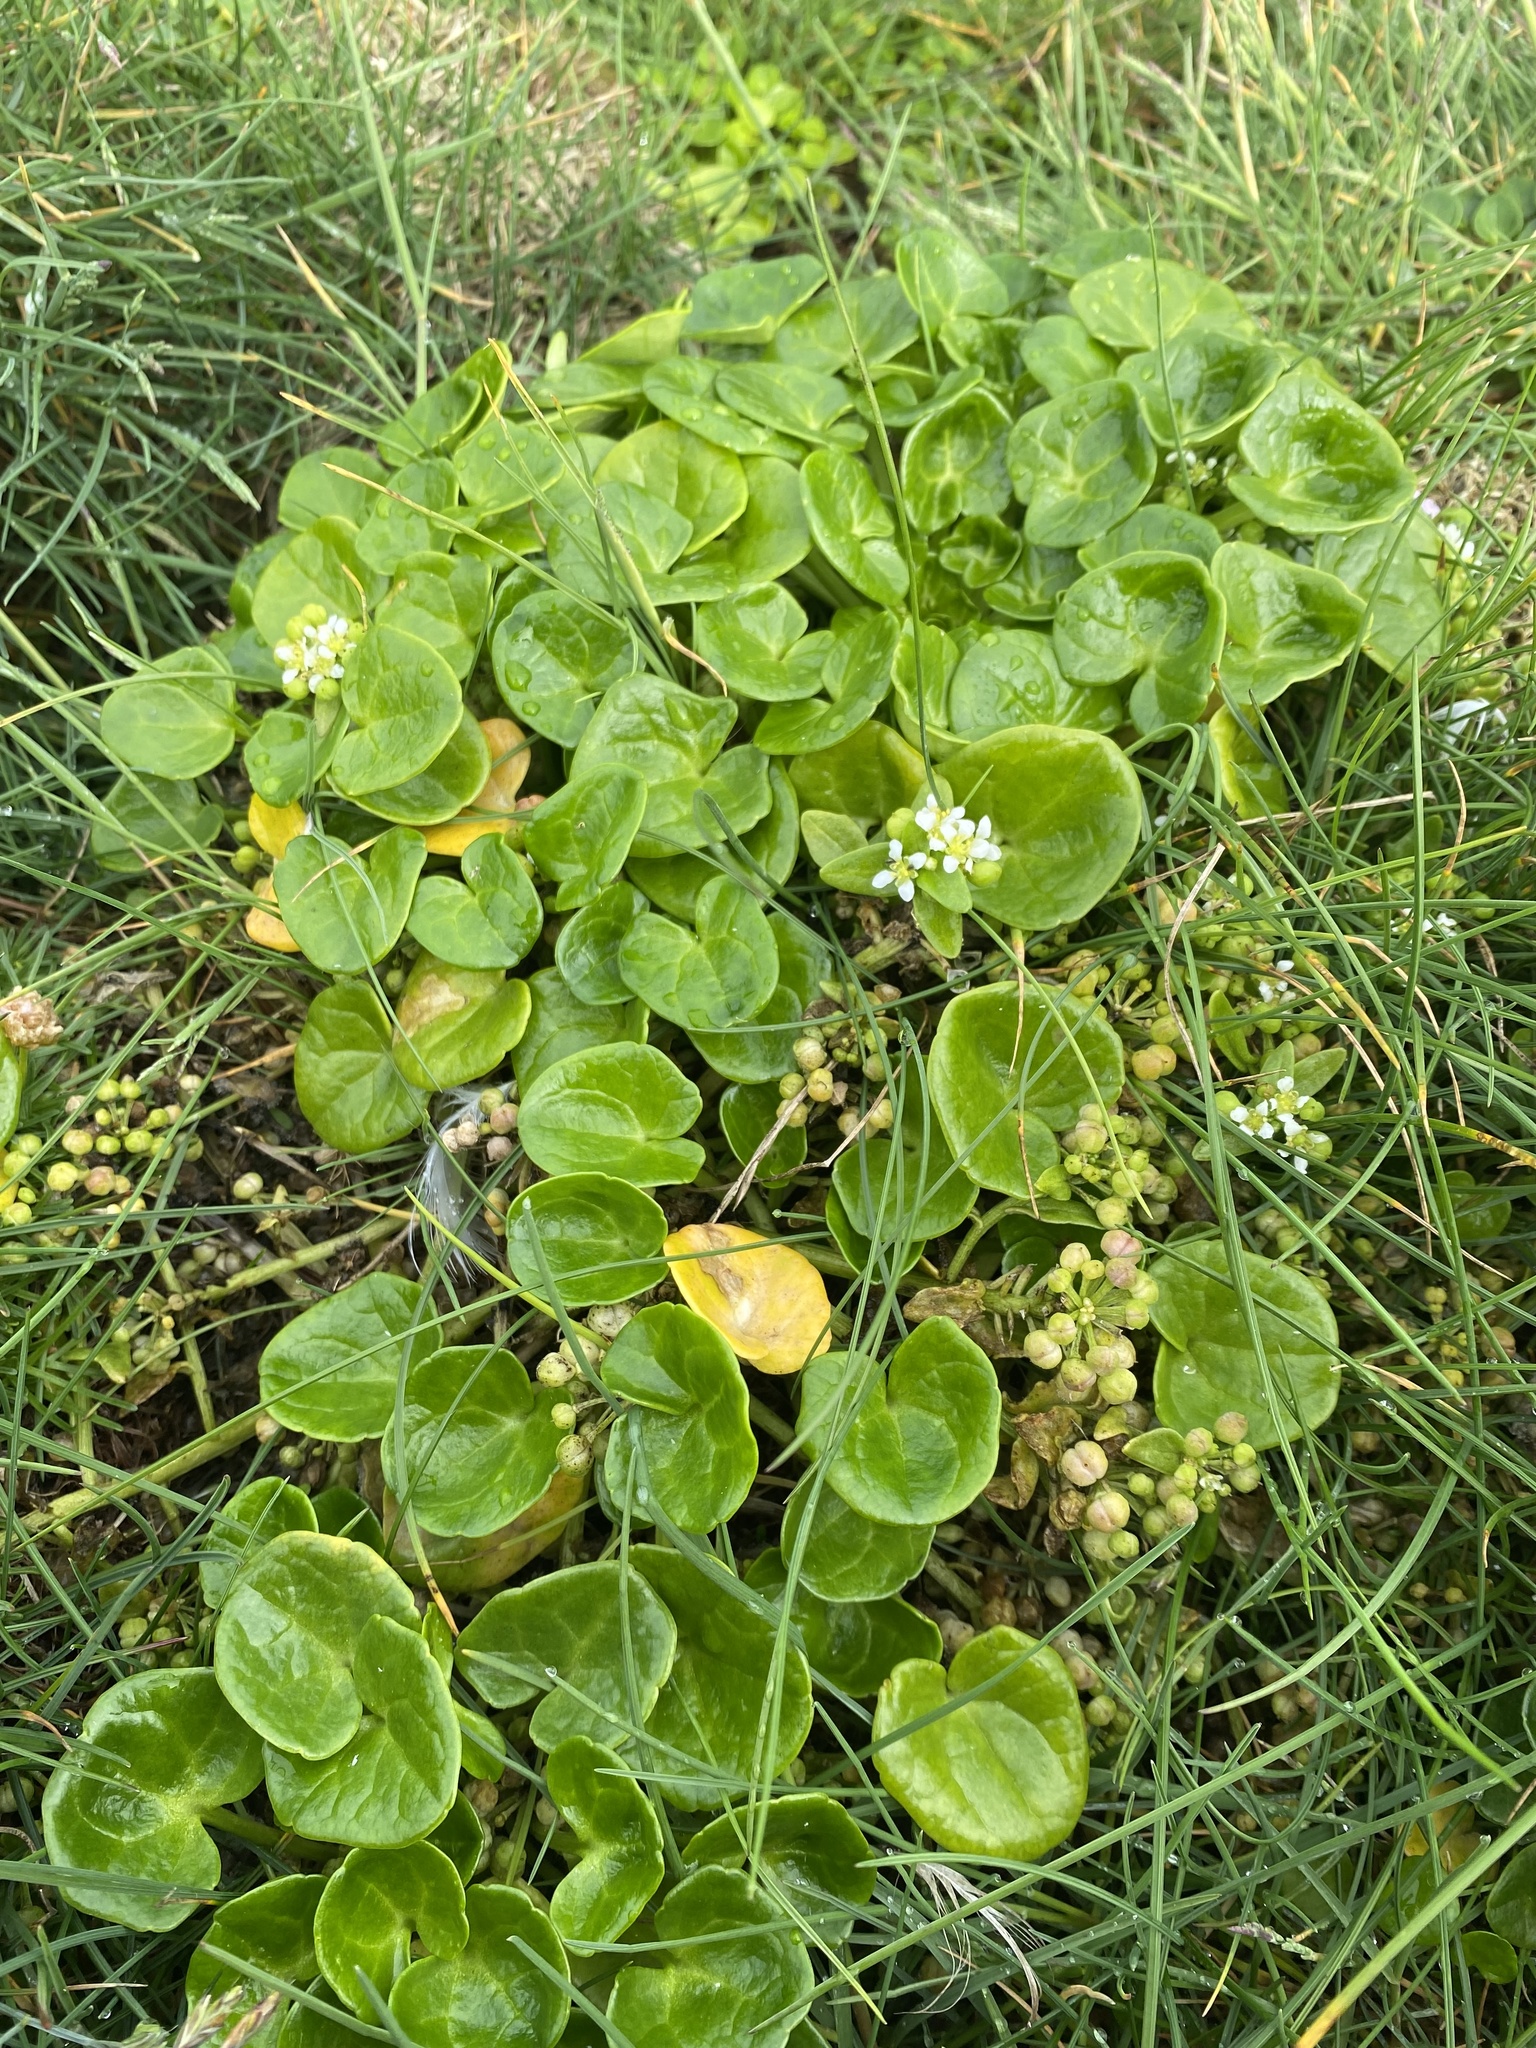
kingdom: Plantae
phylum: Tracheophyta
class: Magnoliopsida
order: Brassicales
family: Brassicaceae
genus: Cochlearia
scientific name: Cochlearia officinalis
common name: Scurvy-grass
